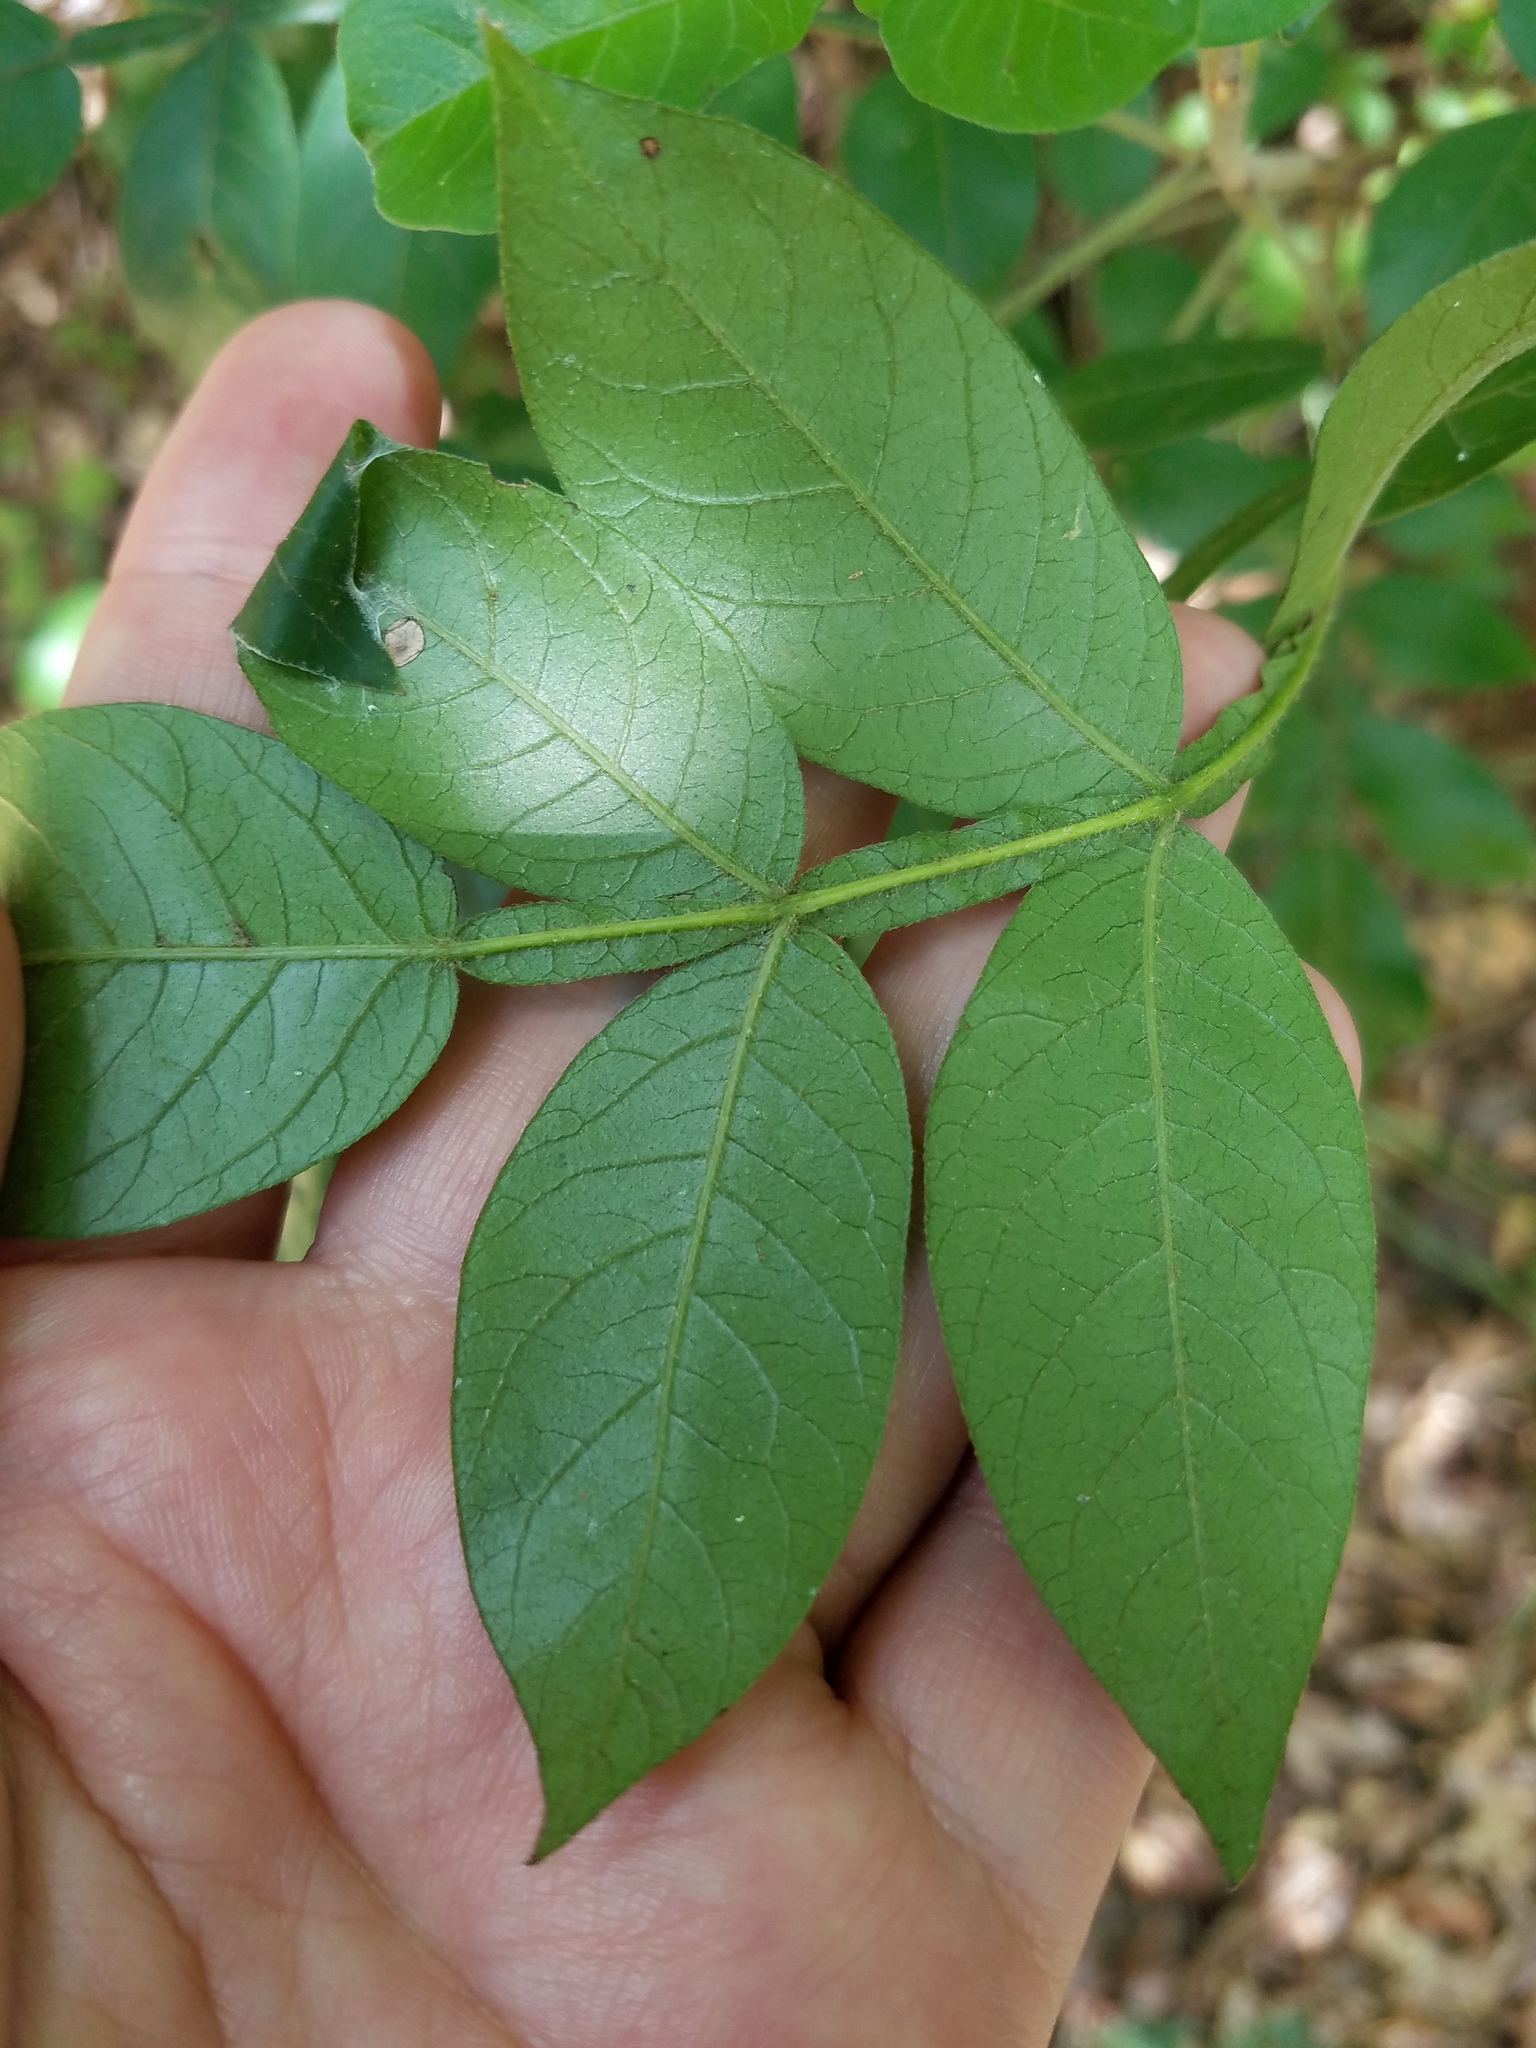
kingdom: Plantae
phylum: Tracheophyta
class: Magnoliopsida
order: Sapindales
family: Anacardiaceae
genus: Rhus
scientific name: Rhus copallina
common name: Shining sumac
